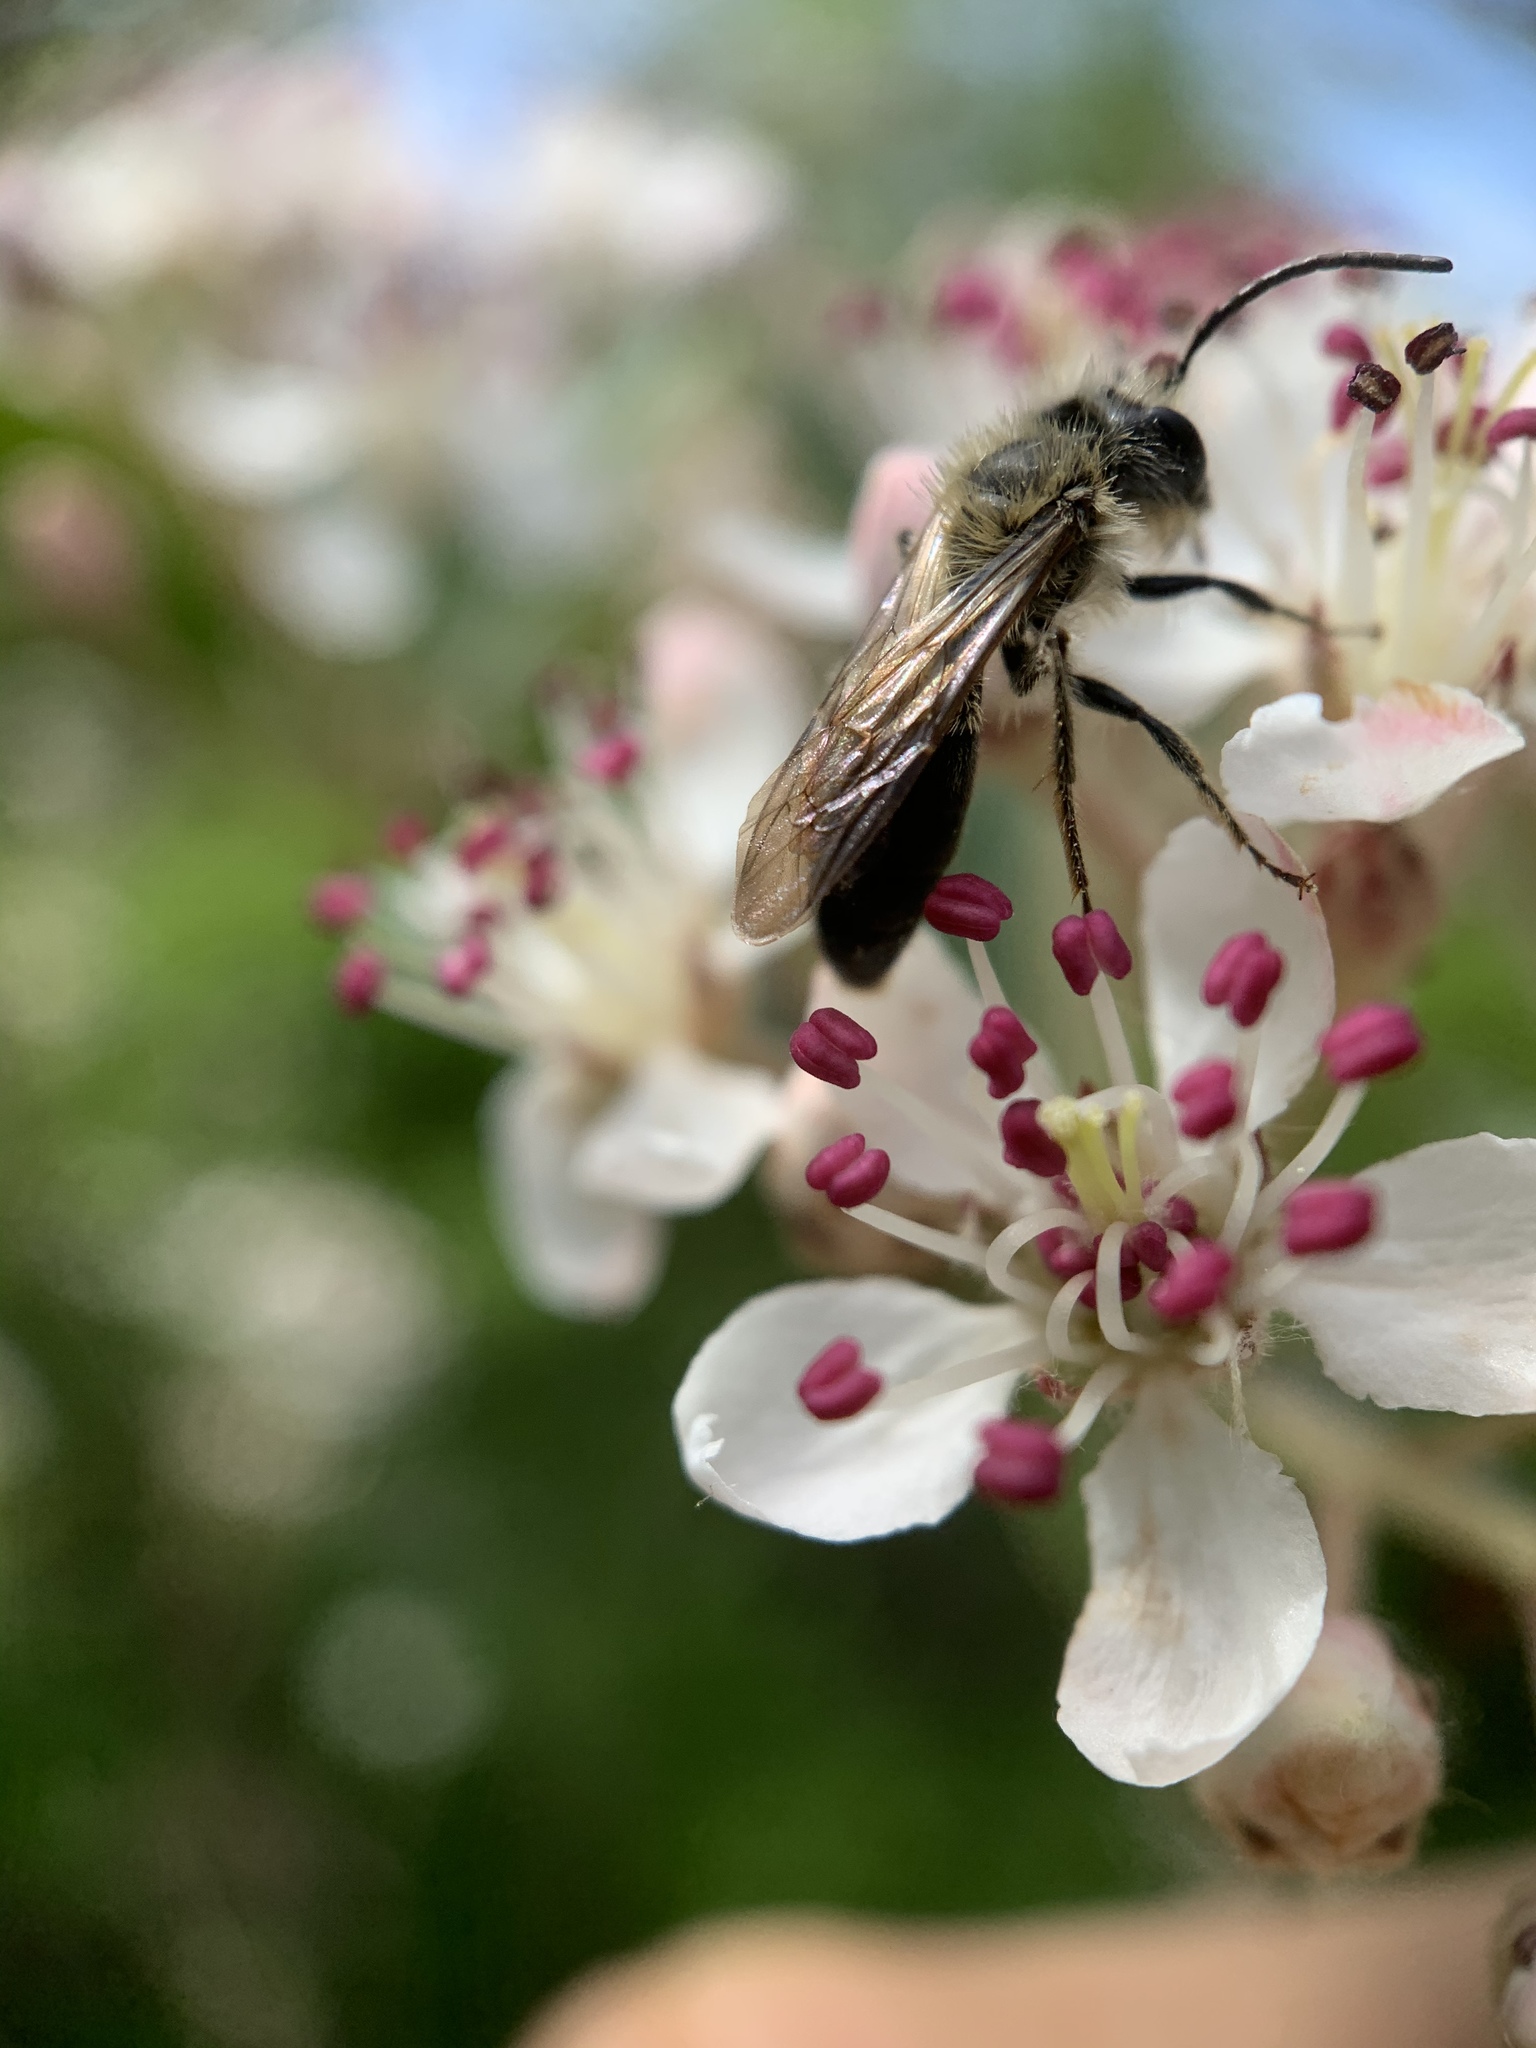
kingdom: Animalia
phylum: Arthropoda
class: Insecta
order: Hymenoptera
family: Andrenidae
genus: Andrena
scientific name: Andrena milwaukeensis
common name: Milwaukee mining bee
